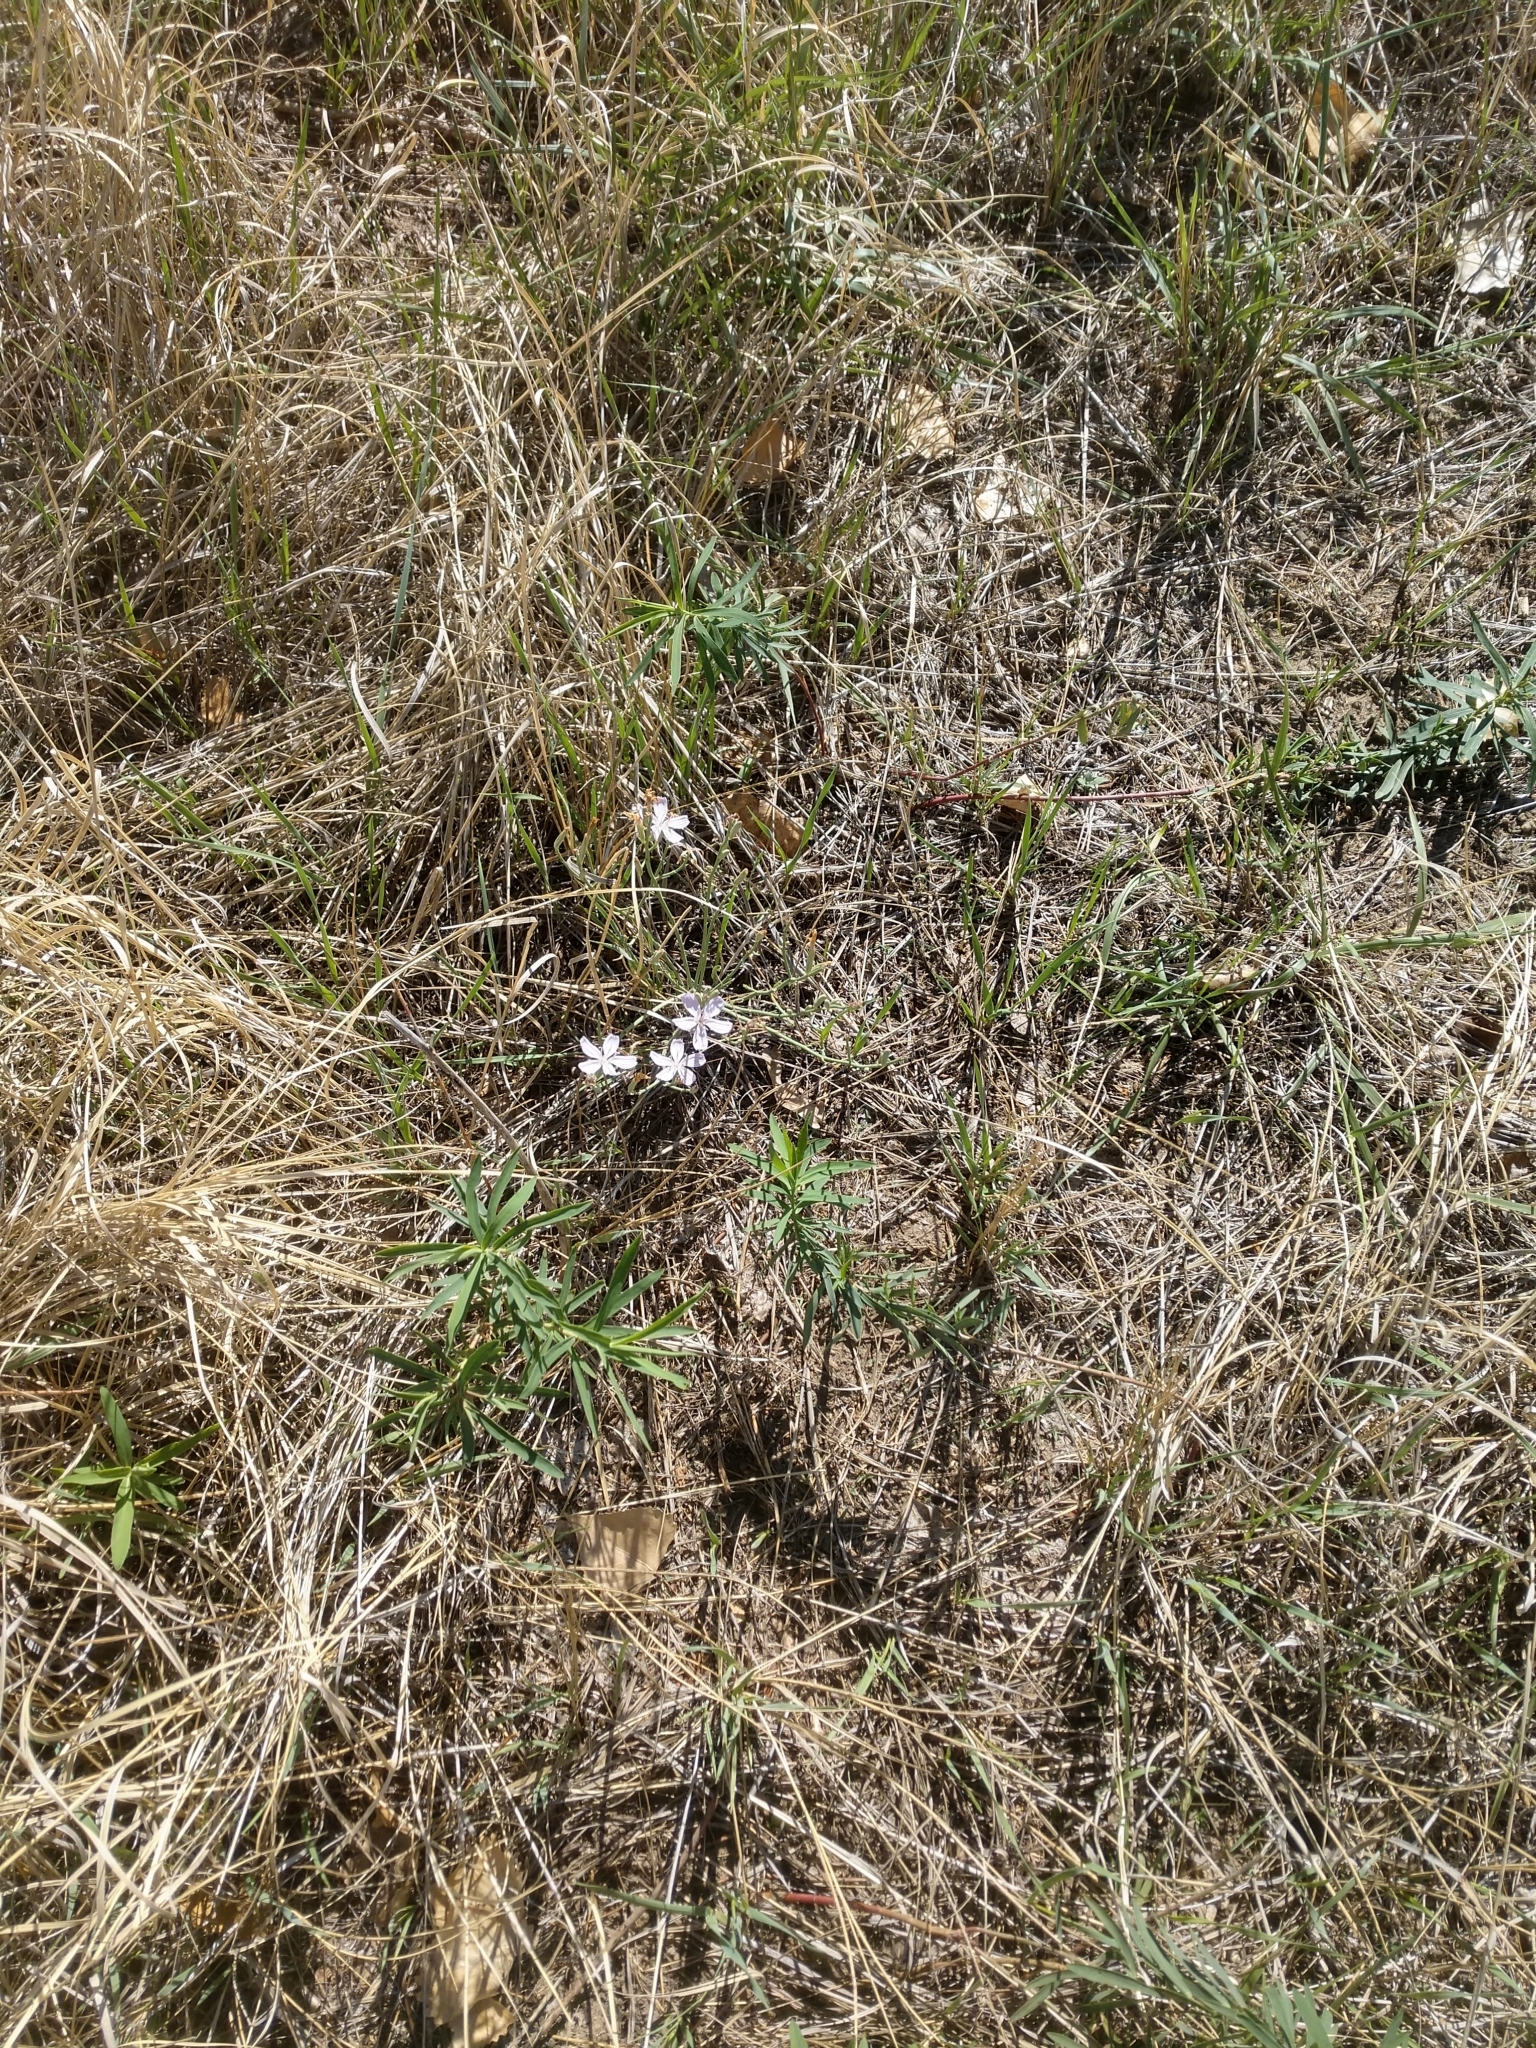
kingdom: Plantae
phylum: Tracheophyta
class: Magnoliopsida
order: Asterales
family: Asteraceae
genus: Lygodesmia
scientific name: Lygodesmia juncea
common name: Common skeletonweed
